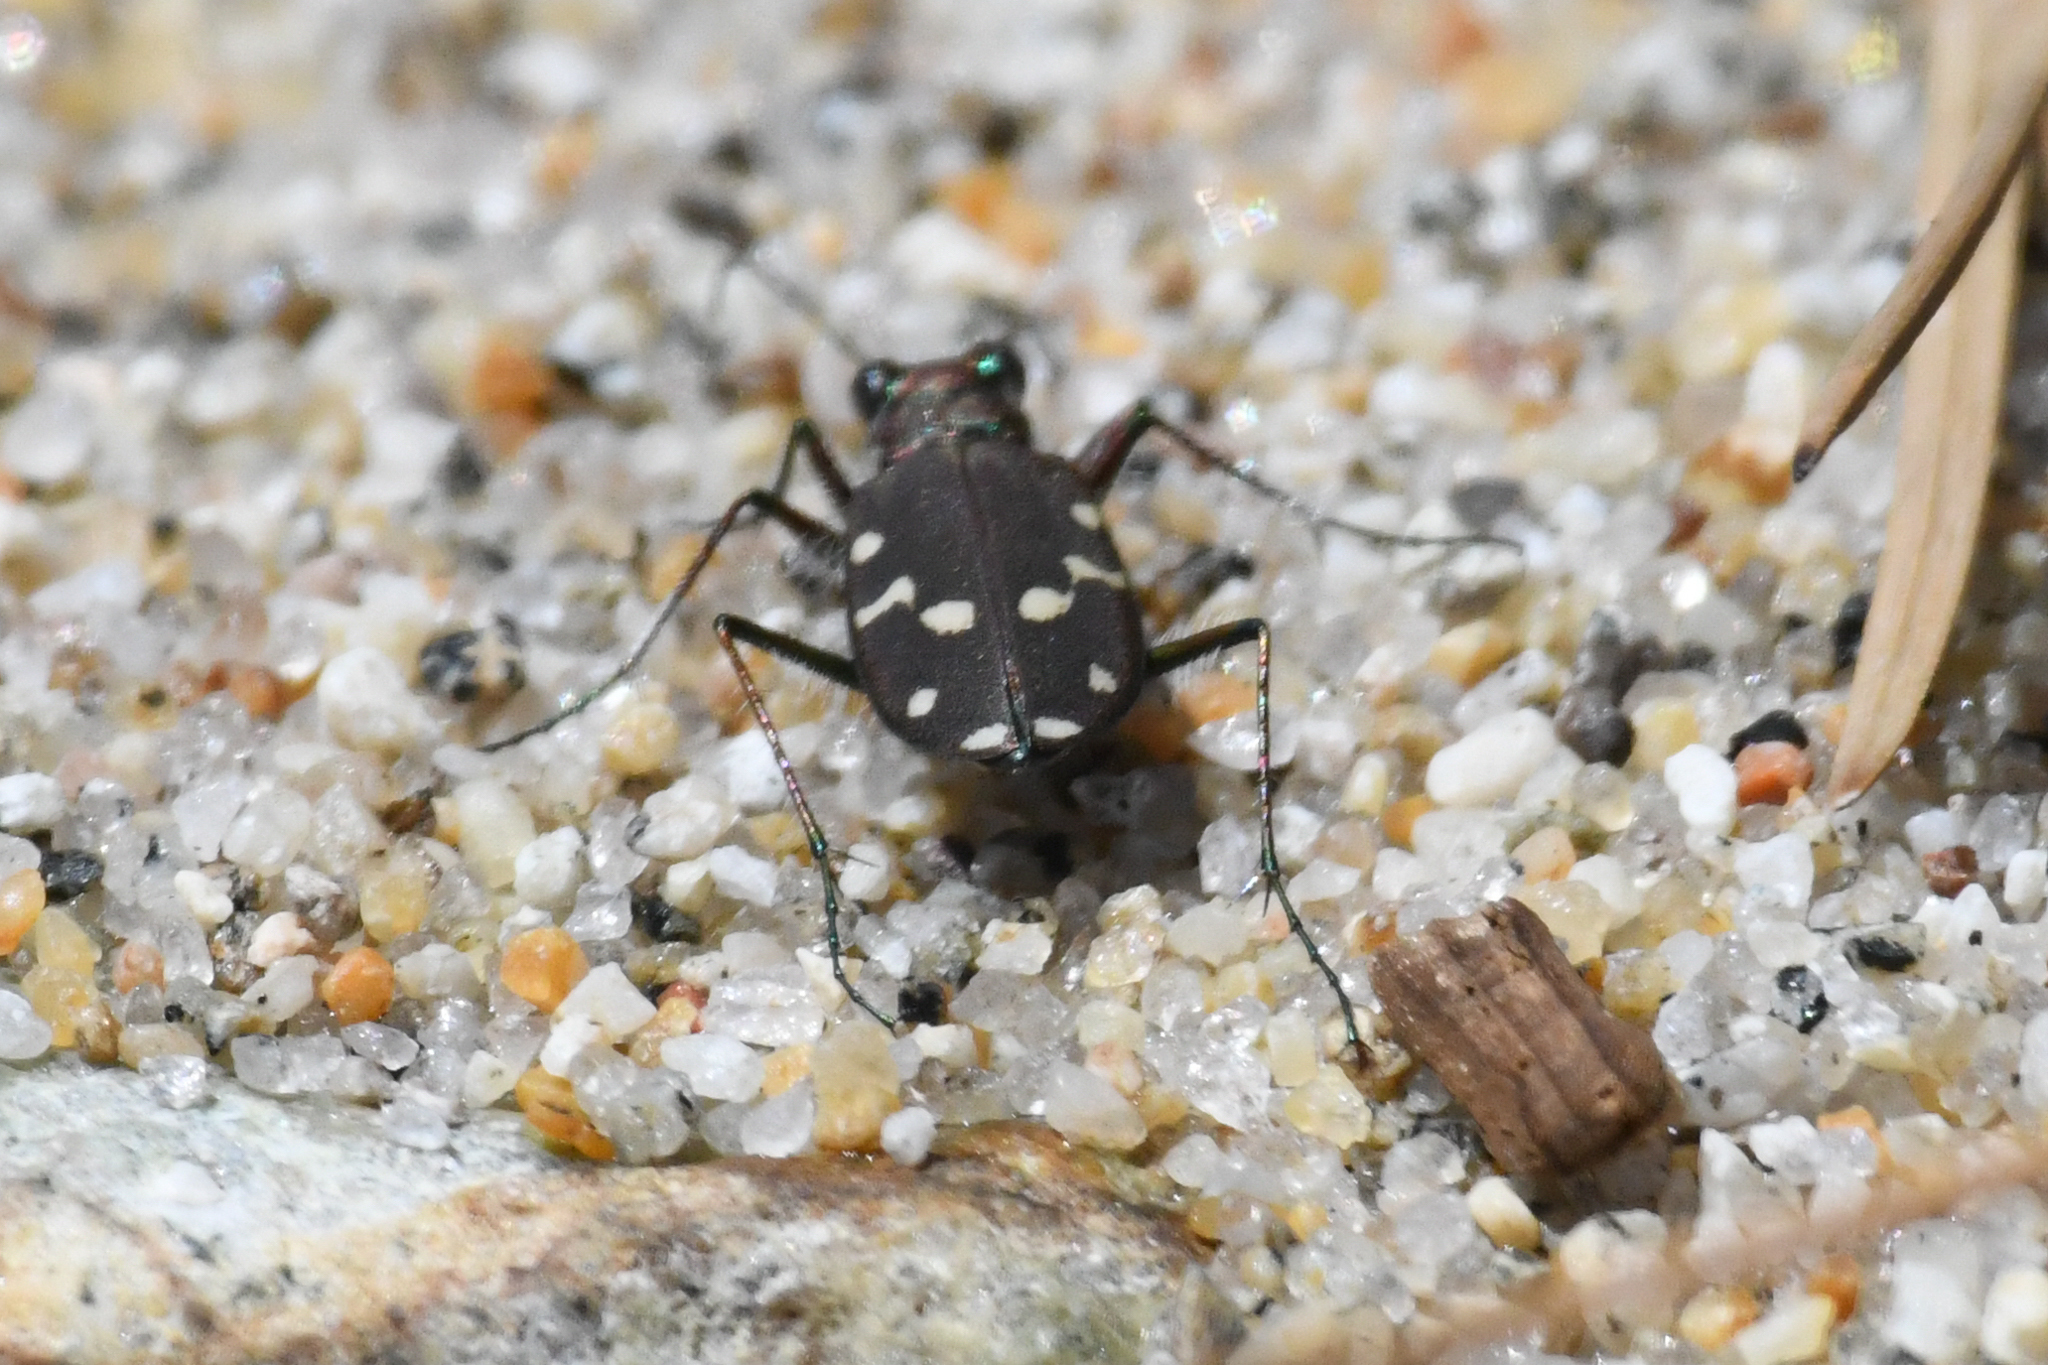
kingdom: Animalia
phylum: Arthropoda
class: Insecta
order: Coleoptera
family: Carabidae
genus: Cicindela
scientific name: Cicindela oregona
